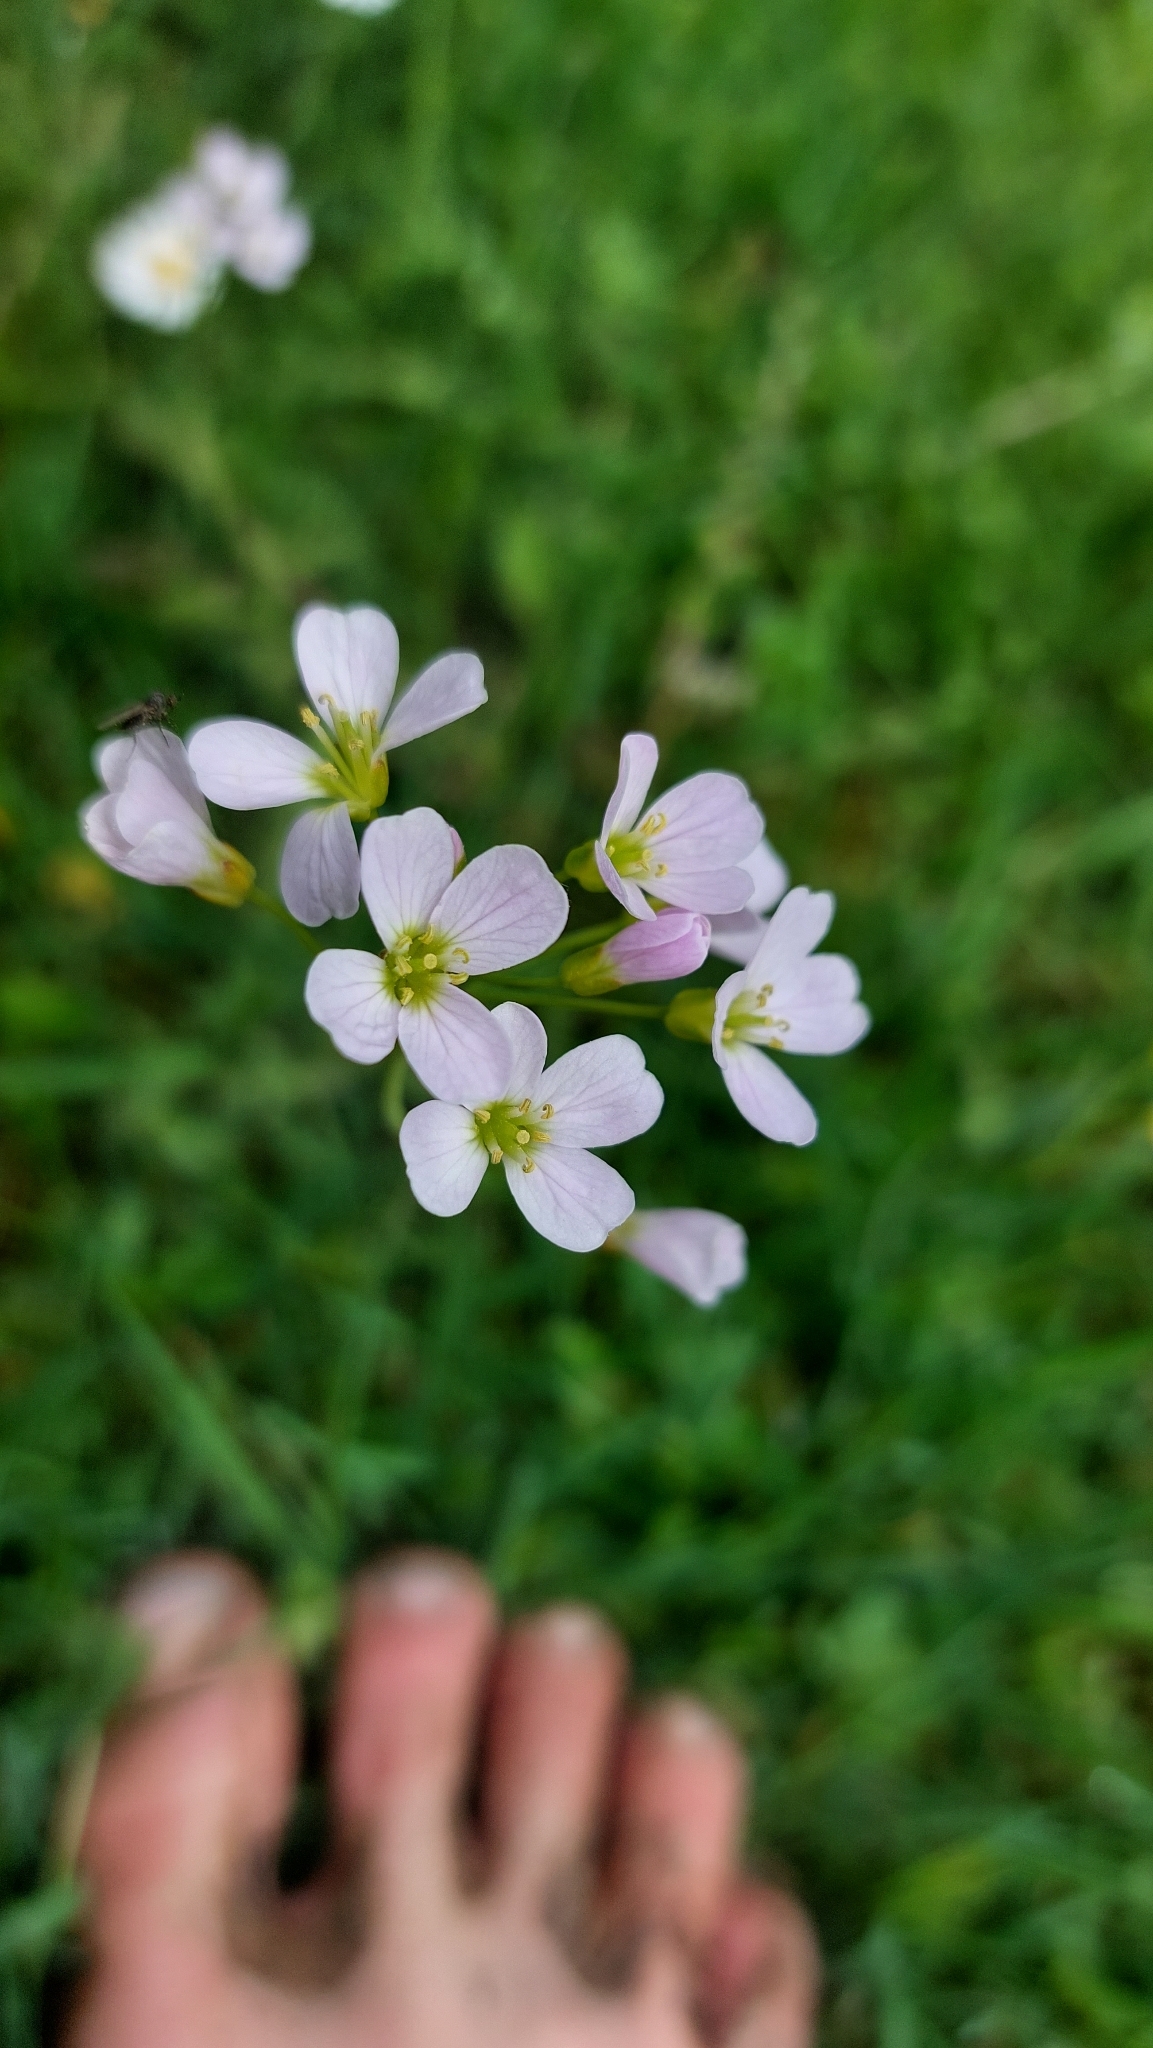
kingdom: Plantae
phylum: Tracheophyta
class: Magnoliopsida
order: Brassicales
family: Brassicaceae
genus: Cardamine
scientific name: Cardamine pratensis
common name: Cuckoo flower
